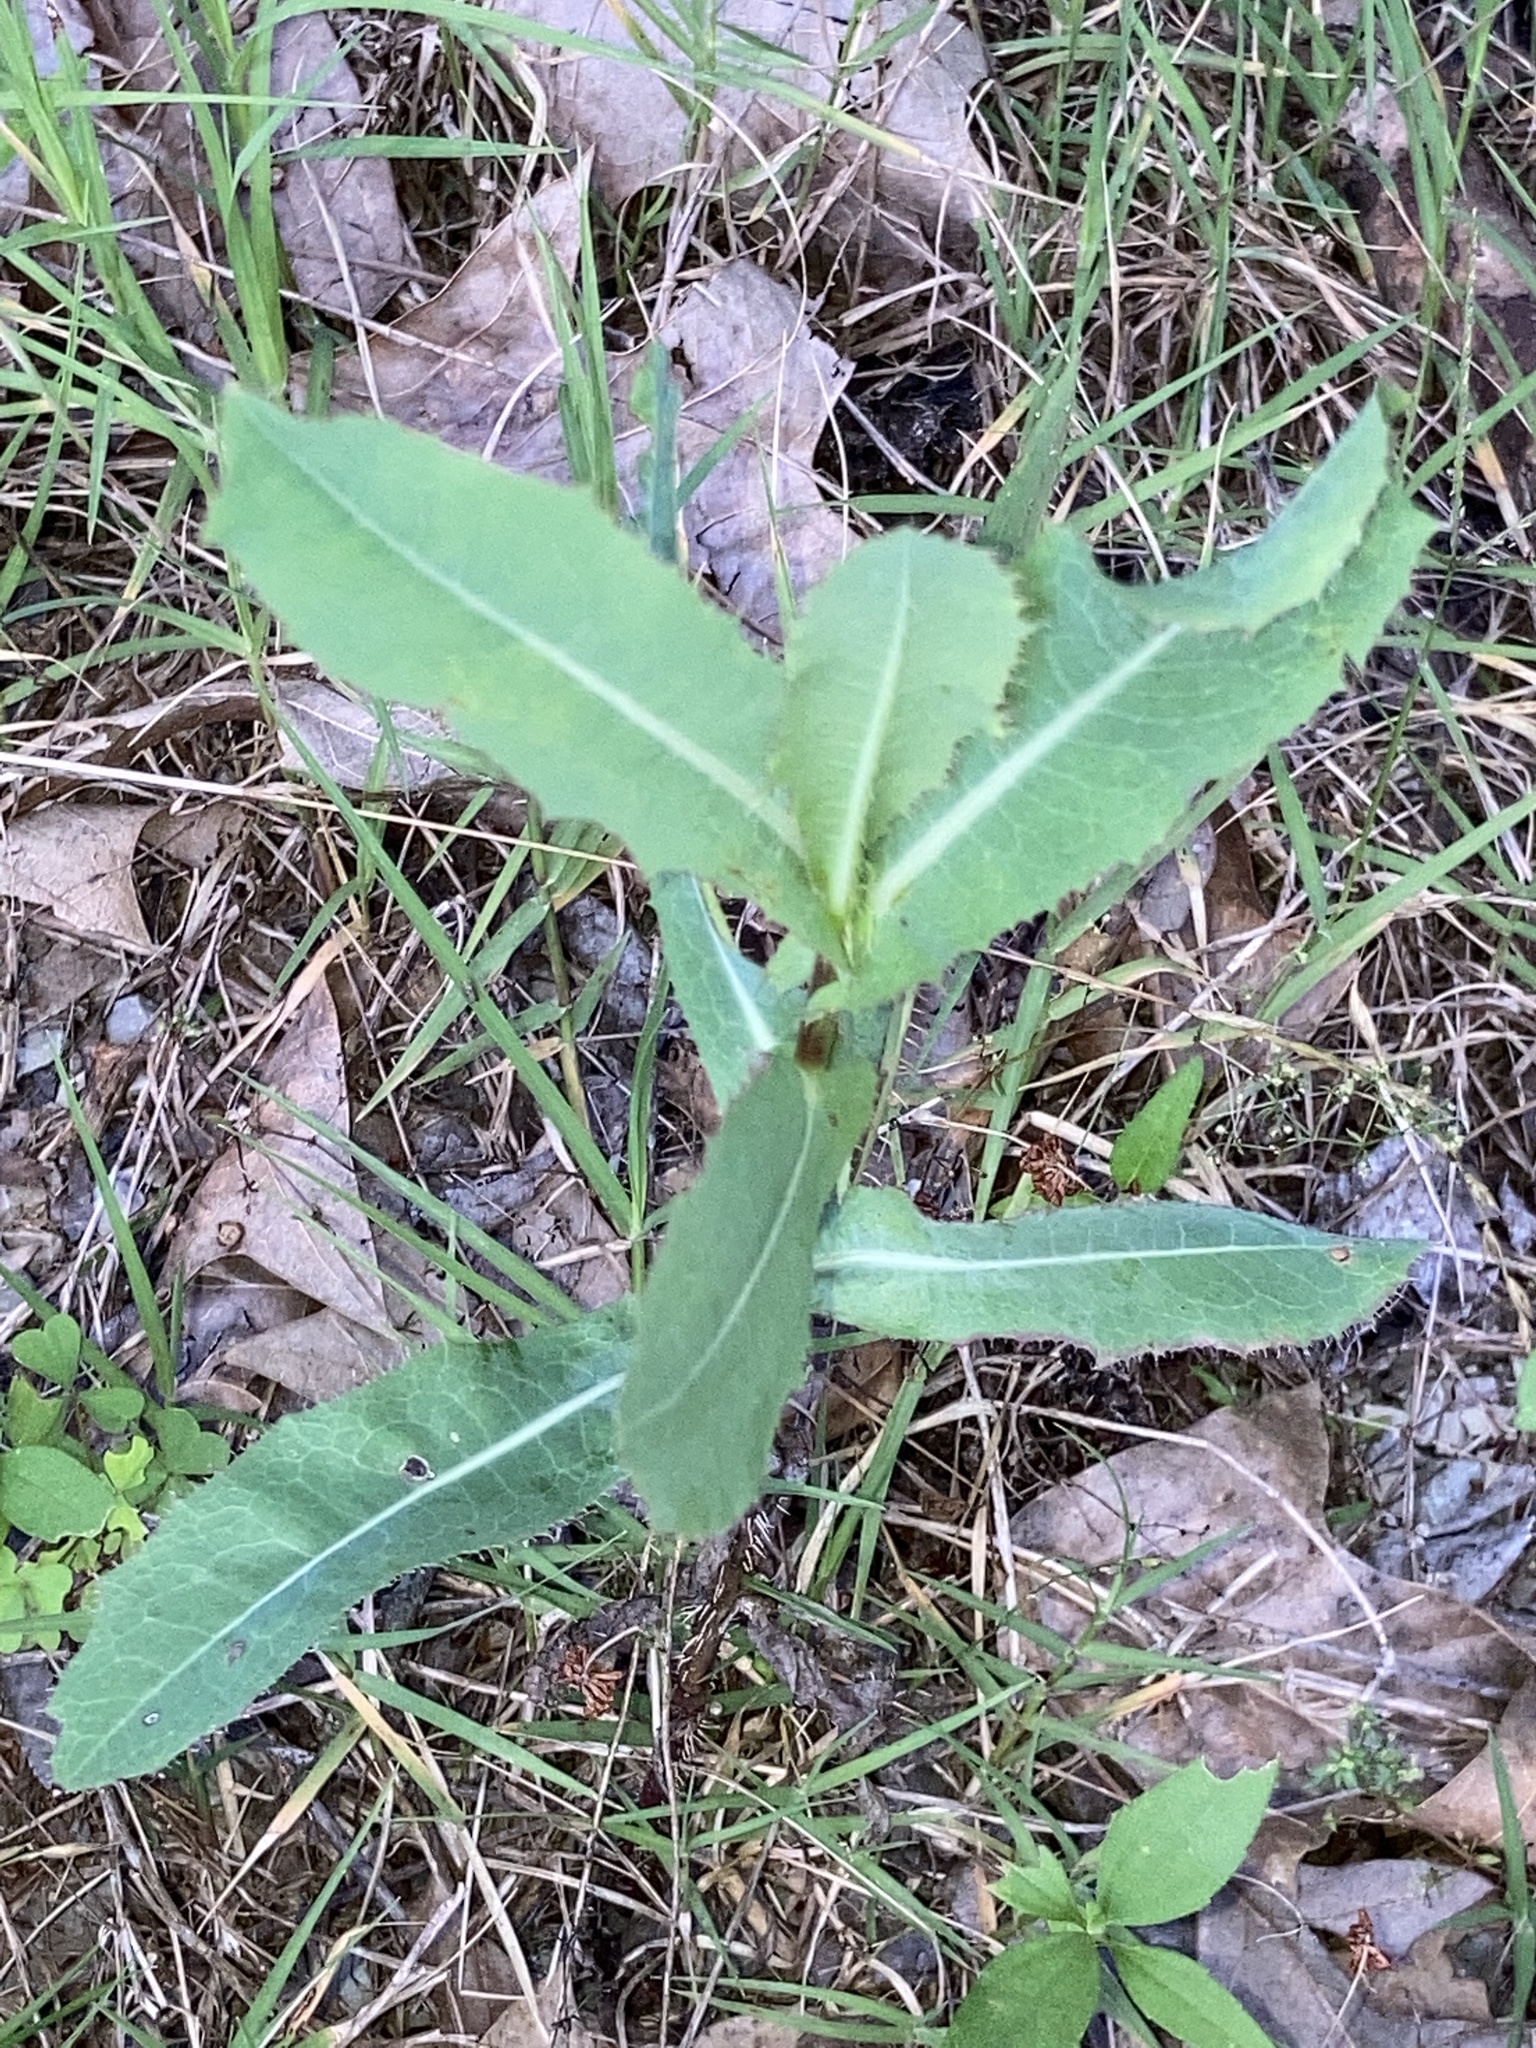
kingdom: Plantae
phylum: Tracheophyta
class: Magnoliopsida
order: Asterales
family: Asteraceae
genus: Lactuca
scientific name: Lactuca serriola
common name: Prickly lettuce
